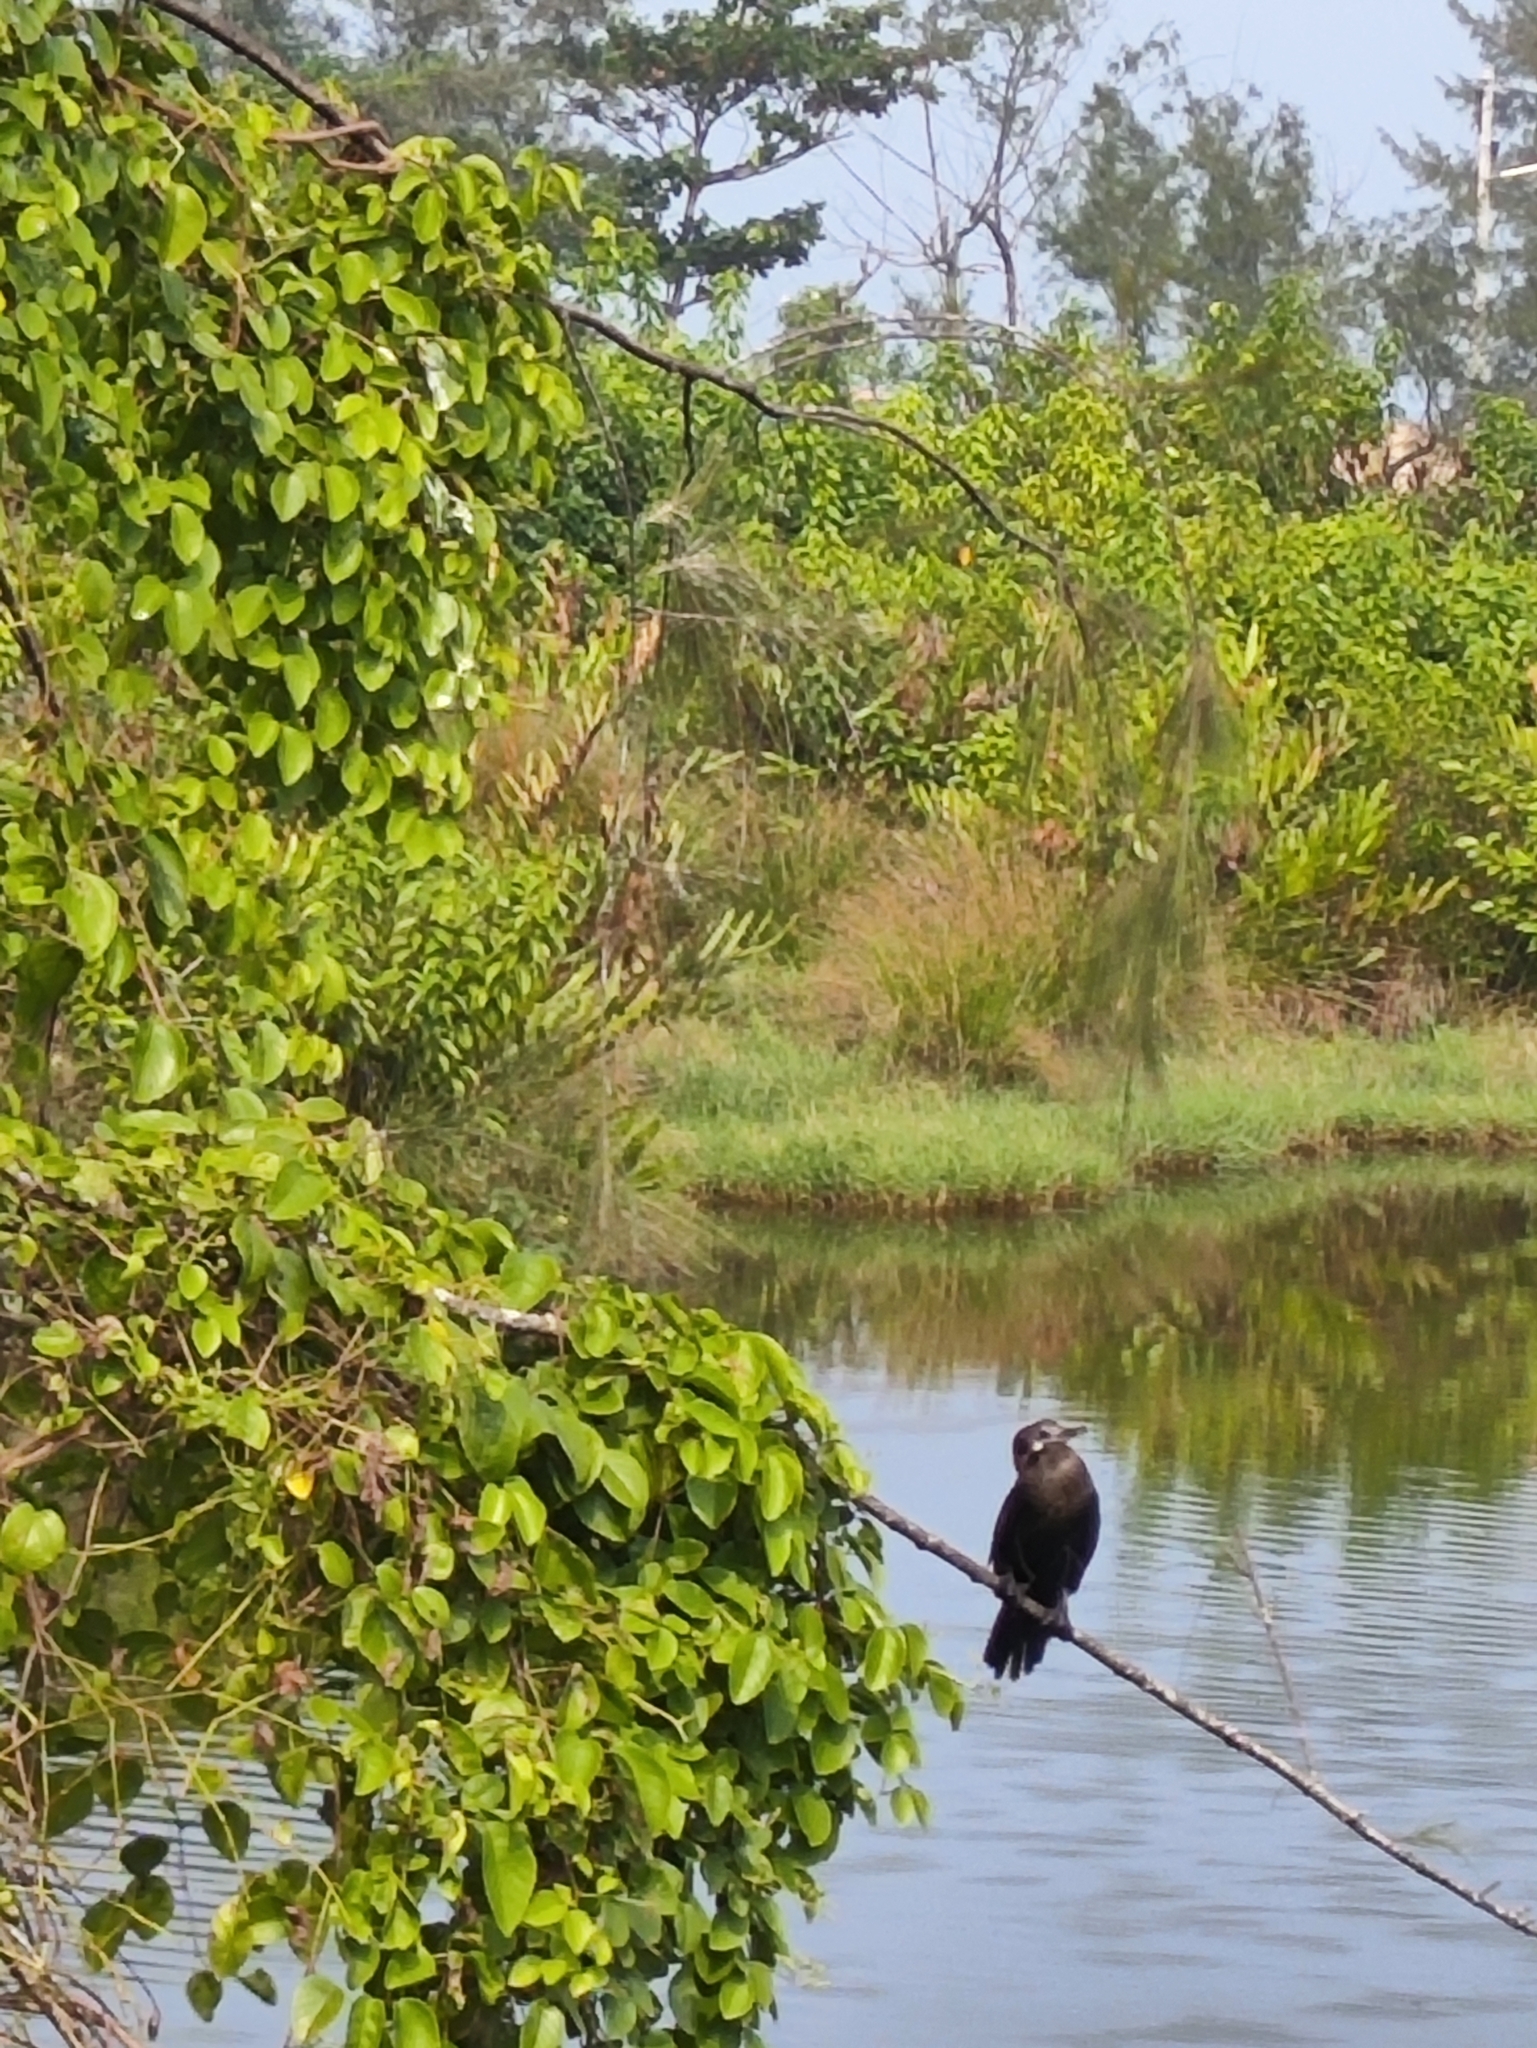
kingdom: Animalia
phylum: Chordata
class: Aves
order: Suliformes
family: Phalacrocoracidae
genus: Phalacrocorax
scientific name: Phalacrocorax fuscicollis
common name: Indian cormorant
